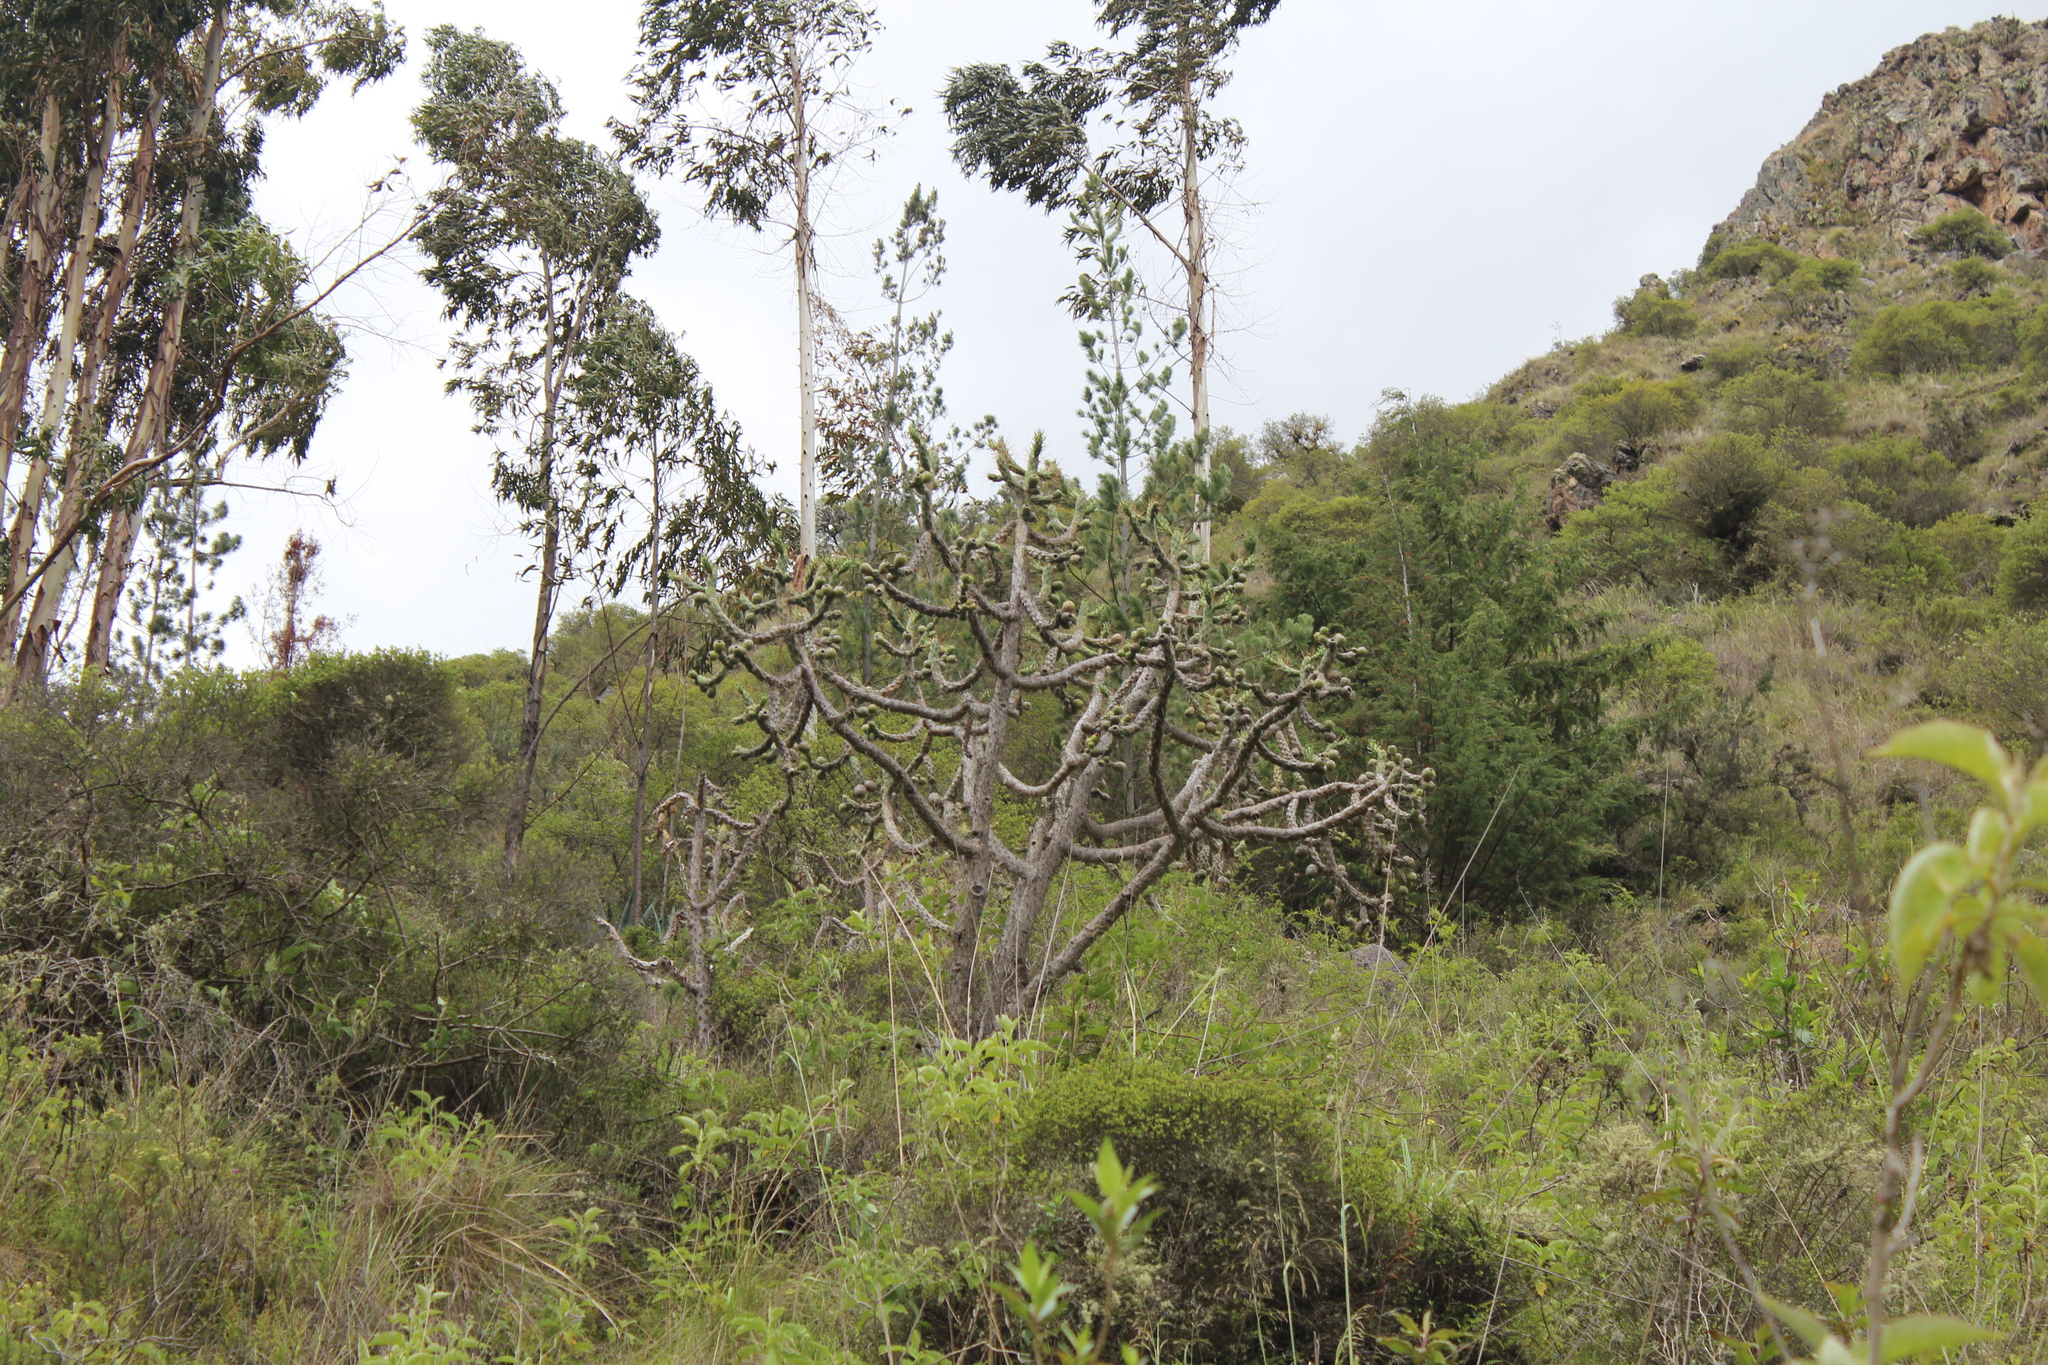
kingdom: Plantae
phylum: Tracheophyta
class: Magnoliopsida
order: Caryophyllales
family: Cactaceae
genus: Austrocylindropuntia
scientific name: Austrocylindropuntia subulata
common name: Eve's needle cactus
